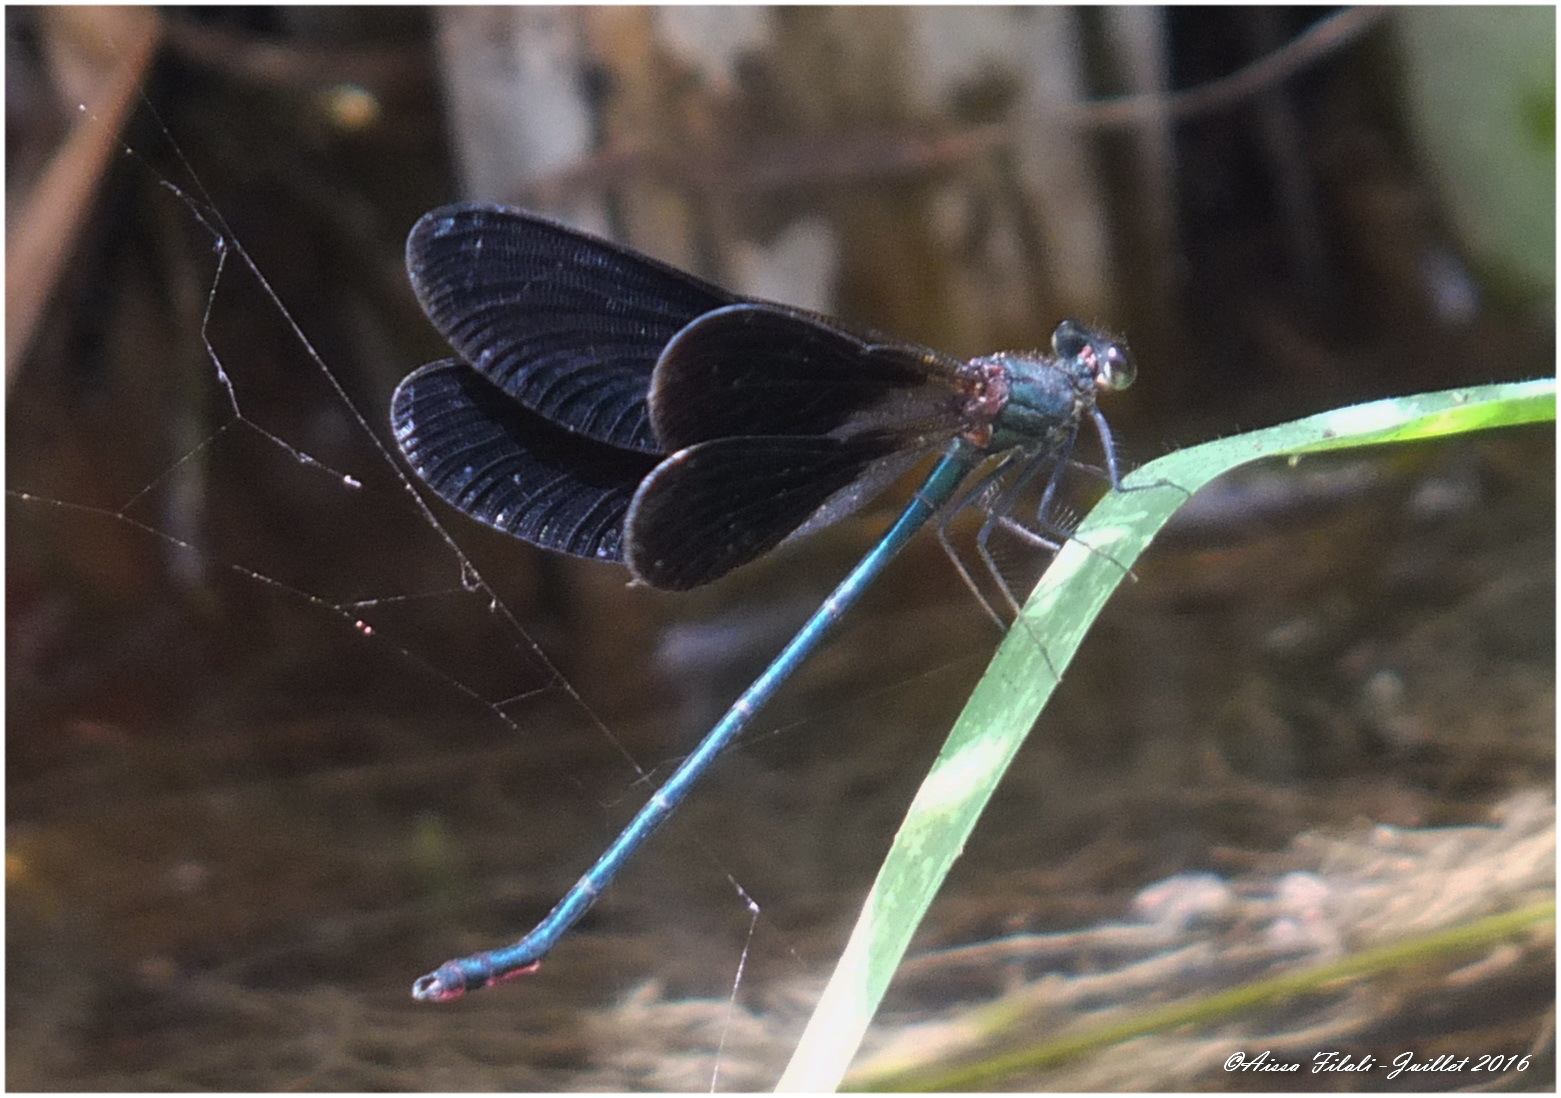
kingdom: Animalia
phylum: Arthropoda
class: Insecta
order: Odonata
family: Calopterygidae
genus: Calopteryx
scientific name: Calopteryx haemorrhoidalis
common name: Copper demoiselle
